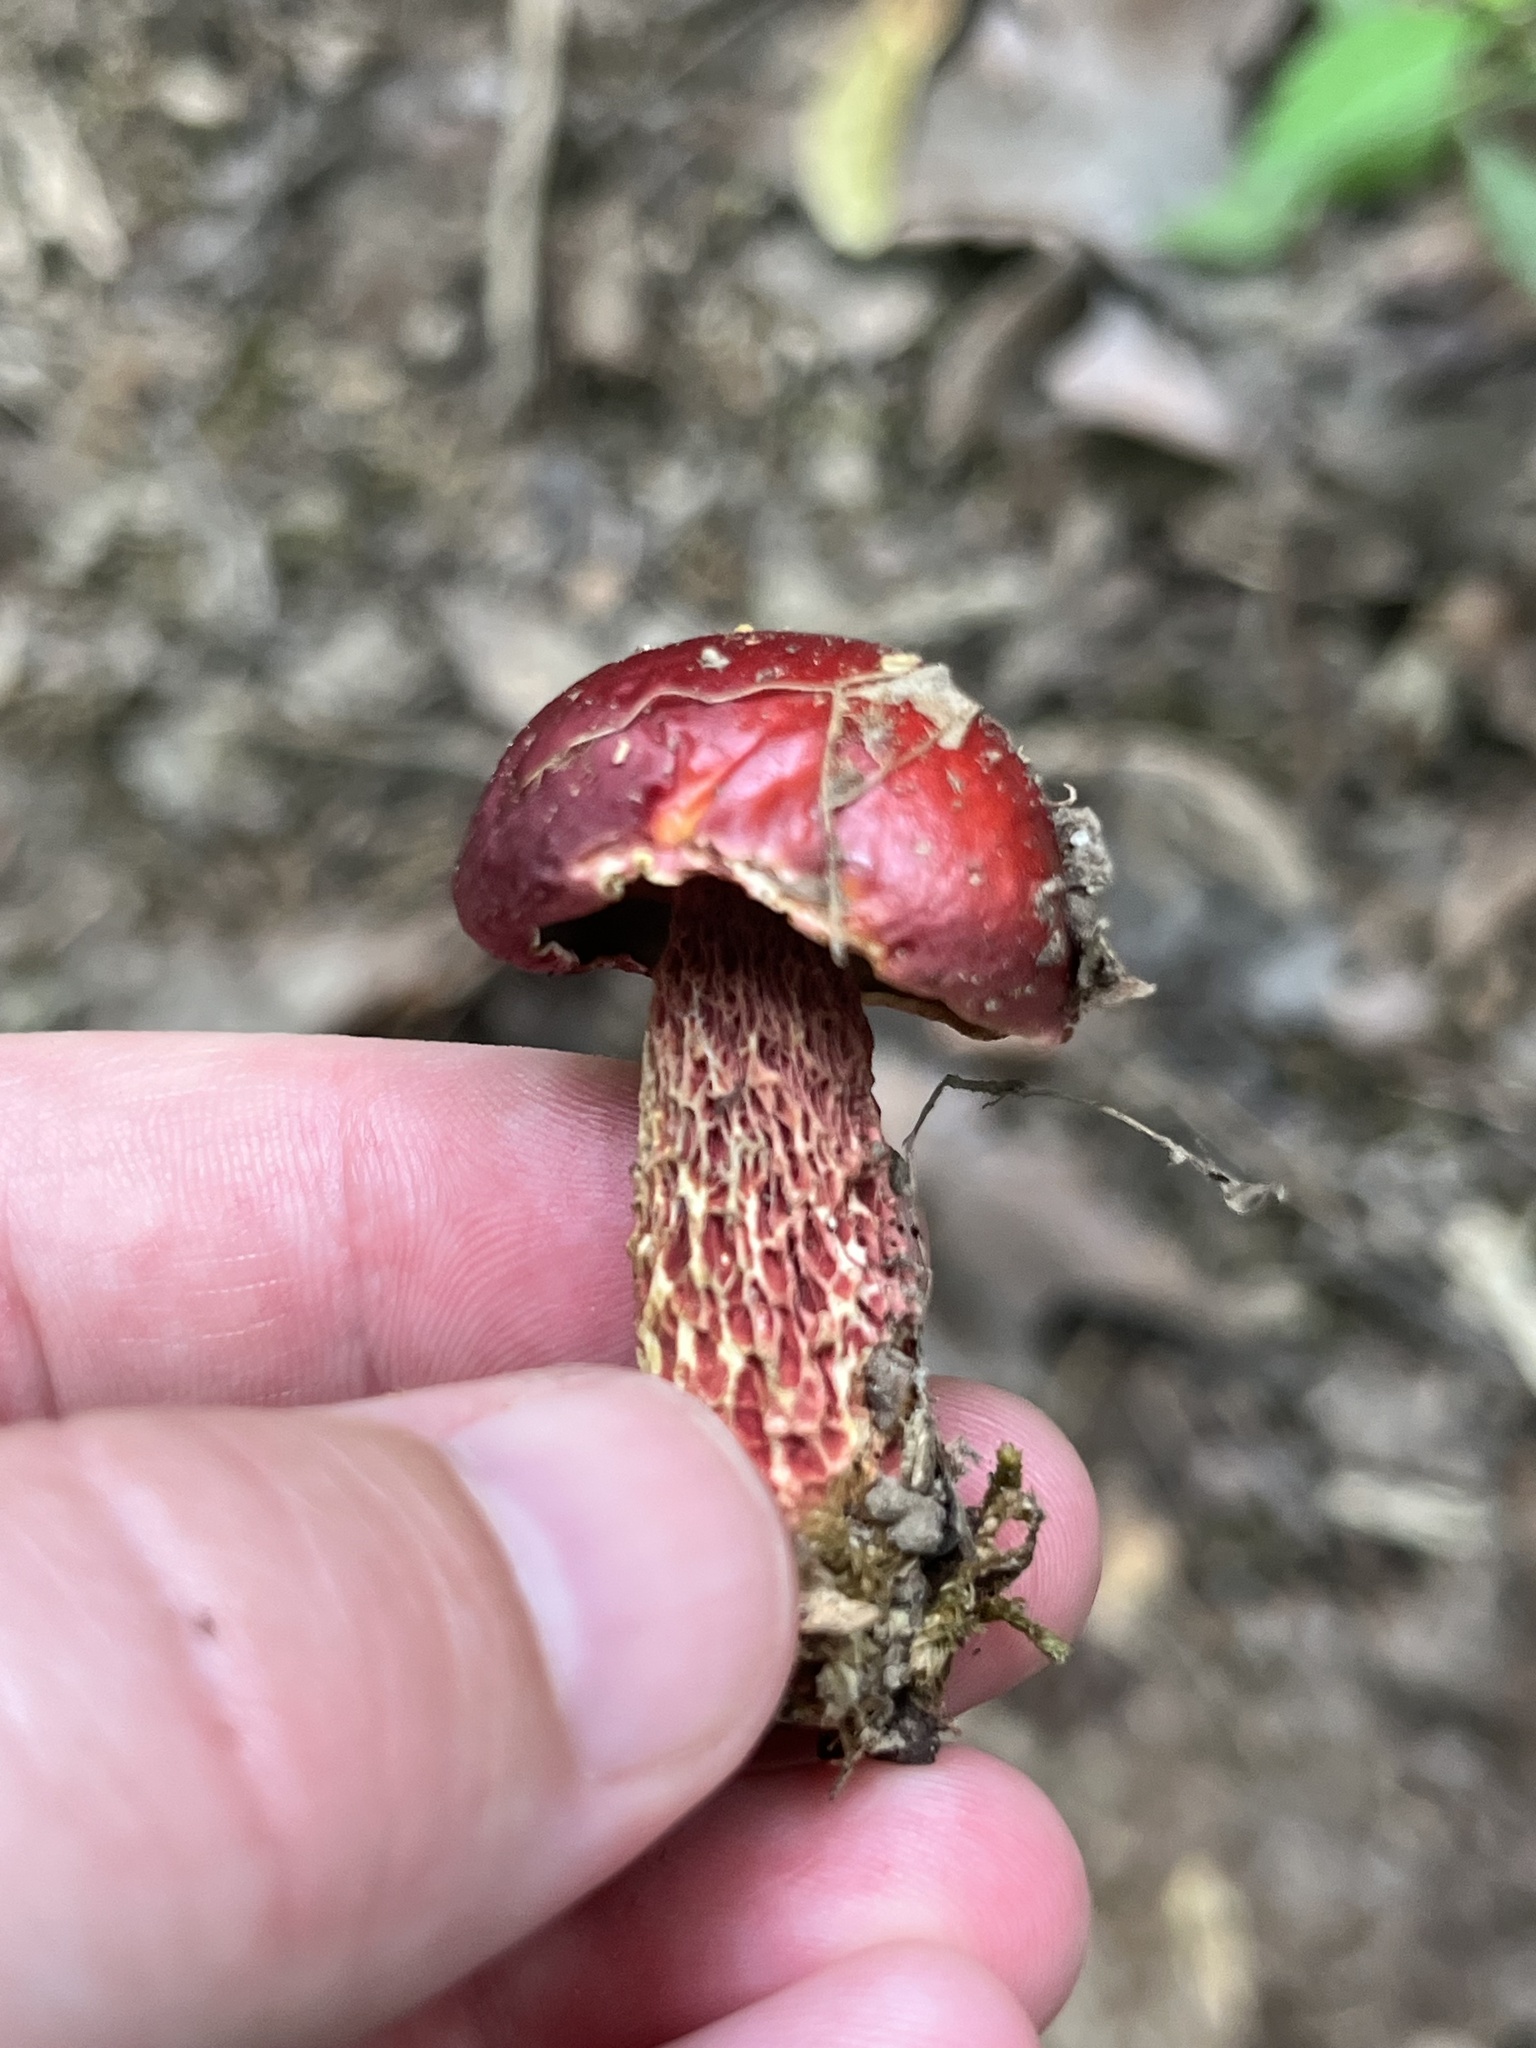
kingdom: Fungi
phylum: Basidiomycota
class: Agaricomycetes
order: Boletales
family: Boletaceae
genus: Butyriboletus
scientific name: Butyriboletus frostii
